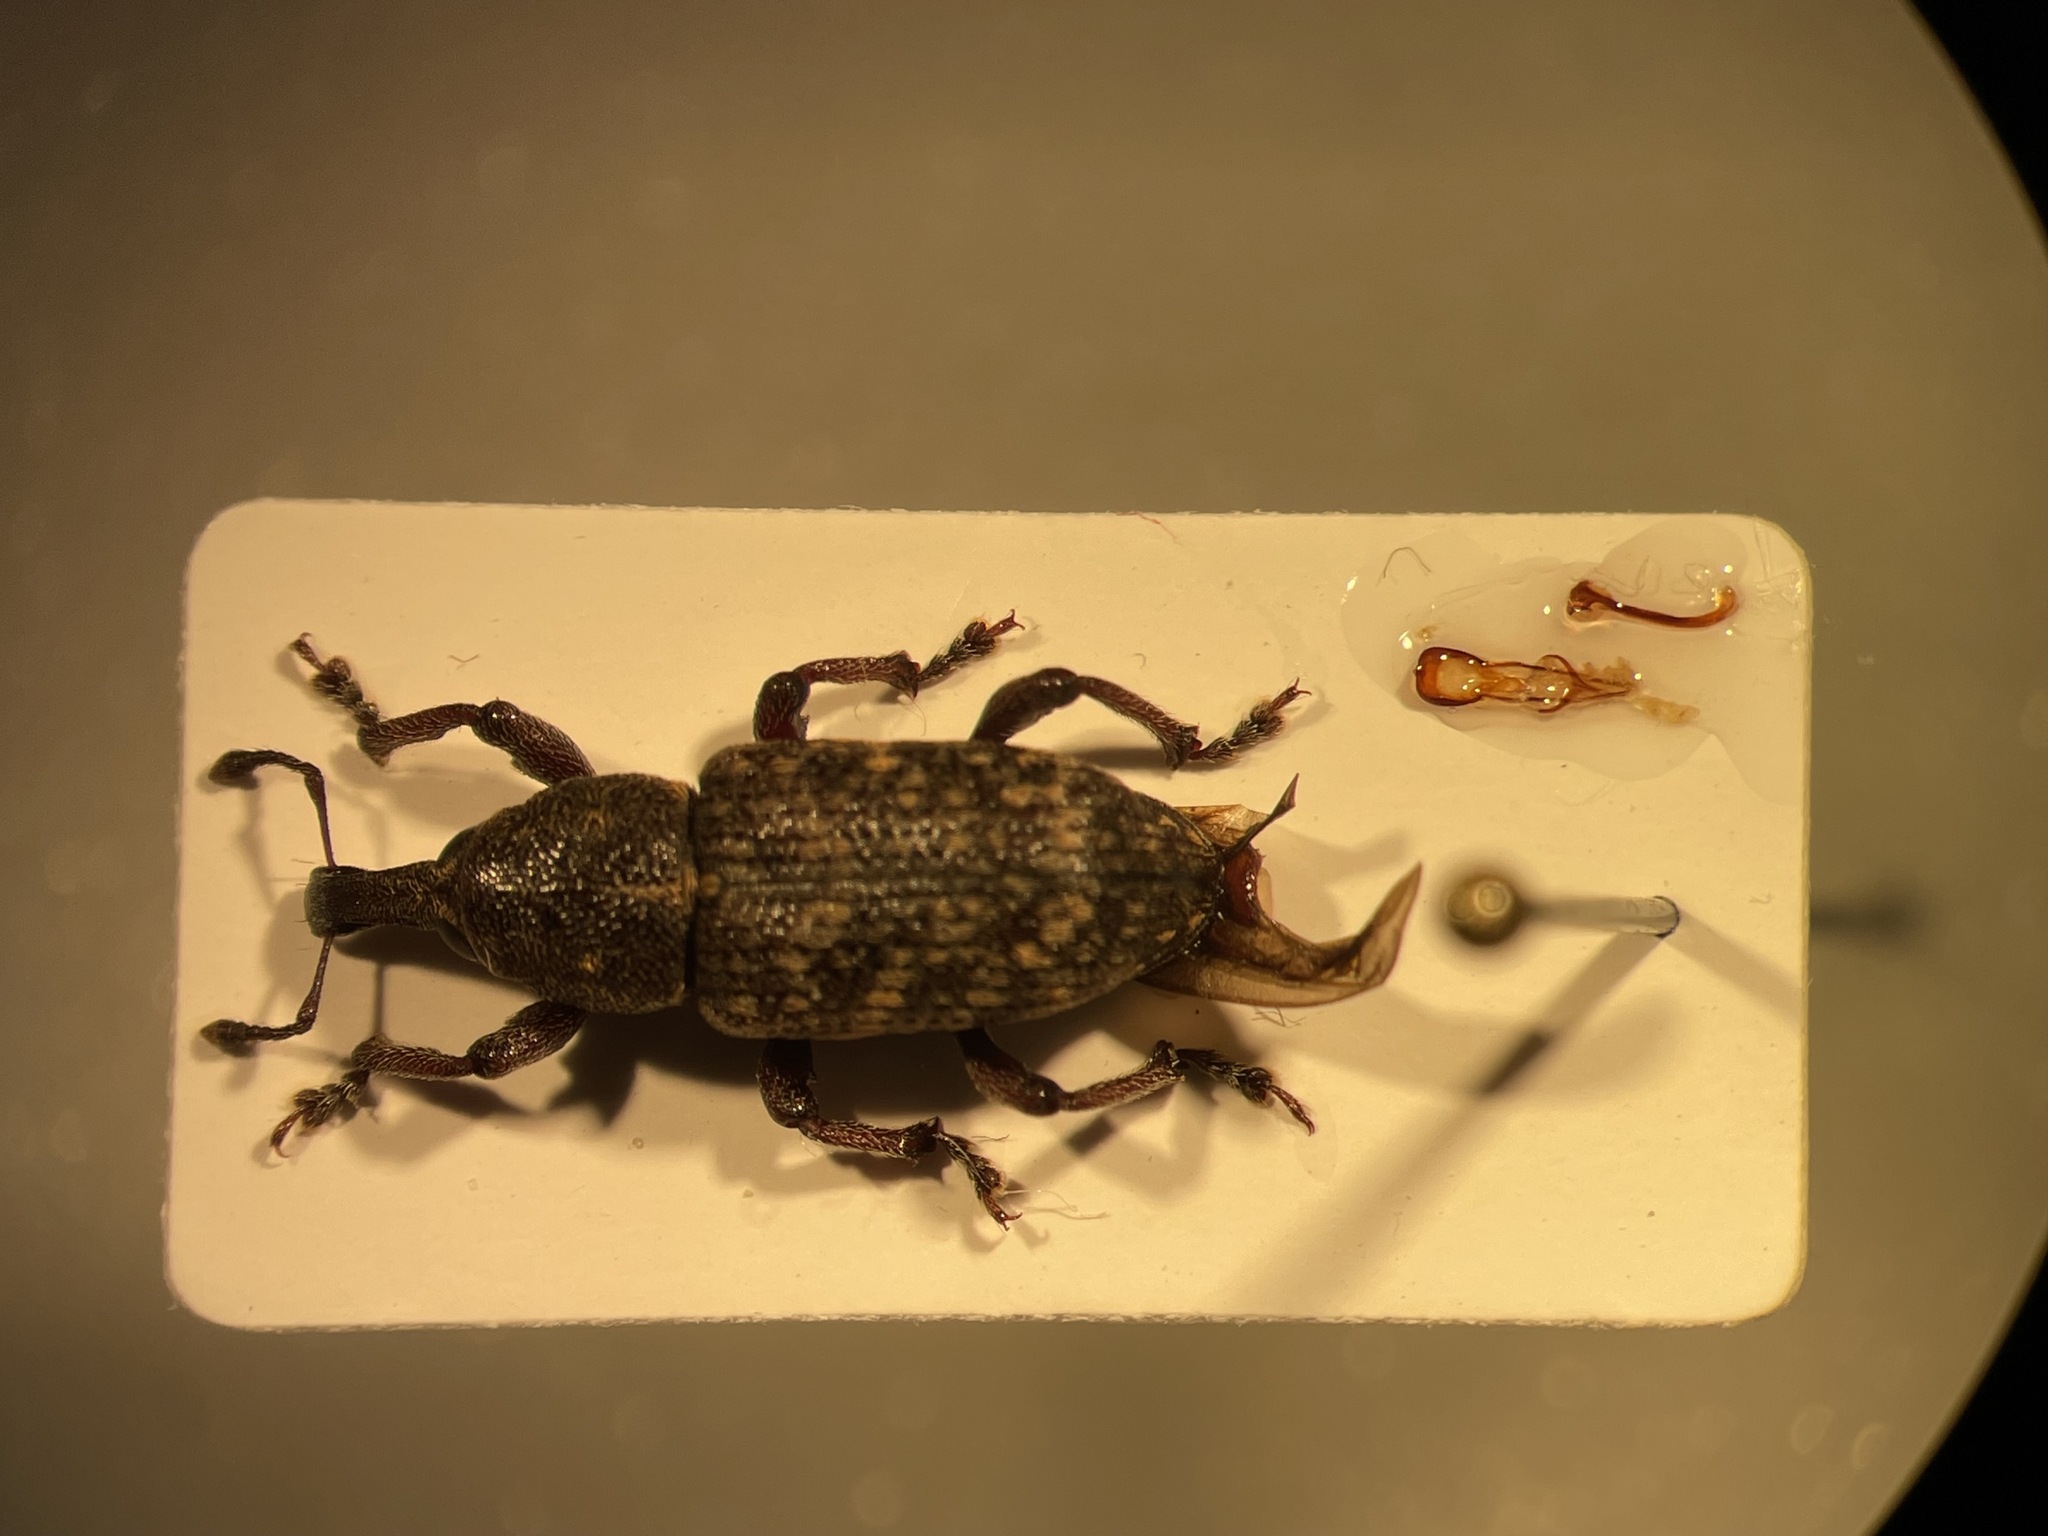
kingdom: Animalia
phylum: Arthropoda
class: Insecta
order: Coleoptera
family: Curculionidae
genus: Hylobius
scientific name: Hylobius pales
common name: Pales weevil
